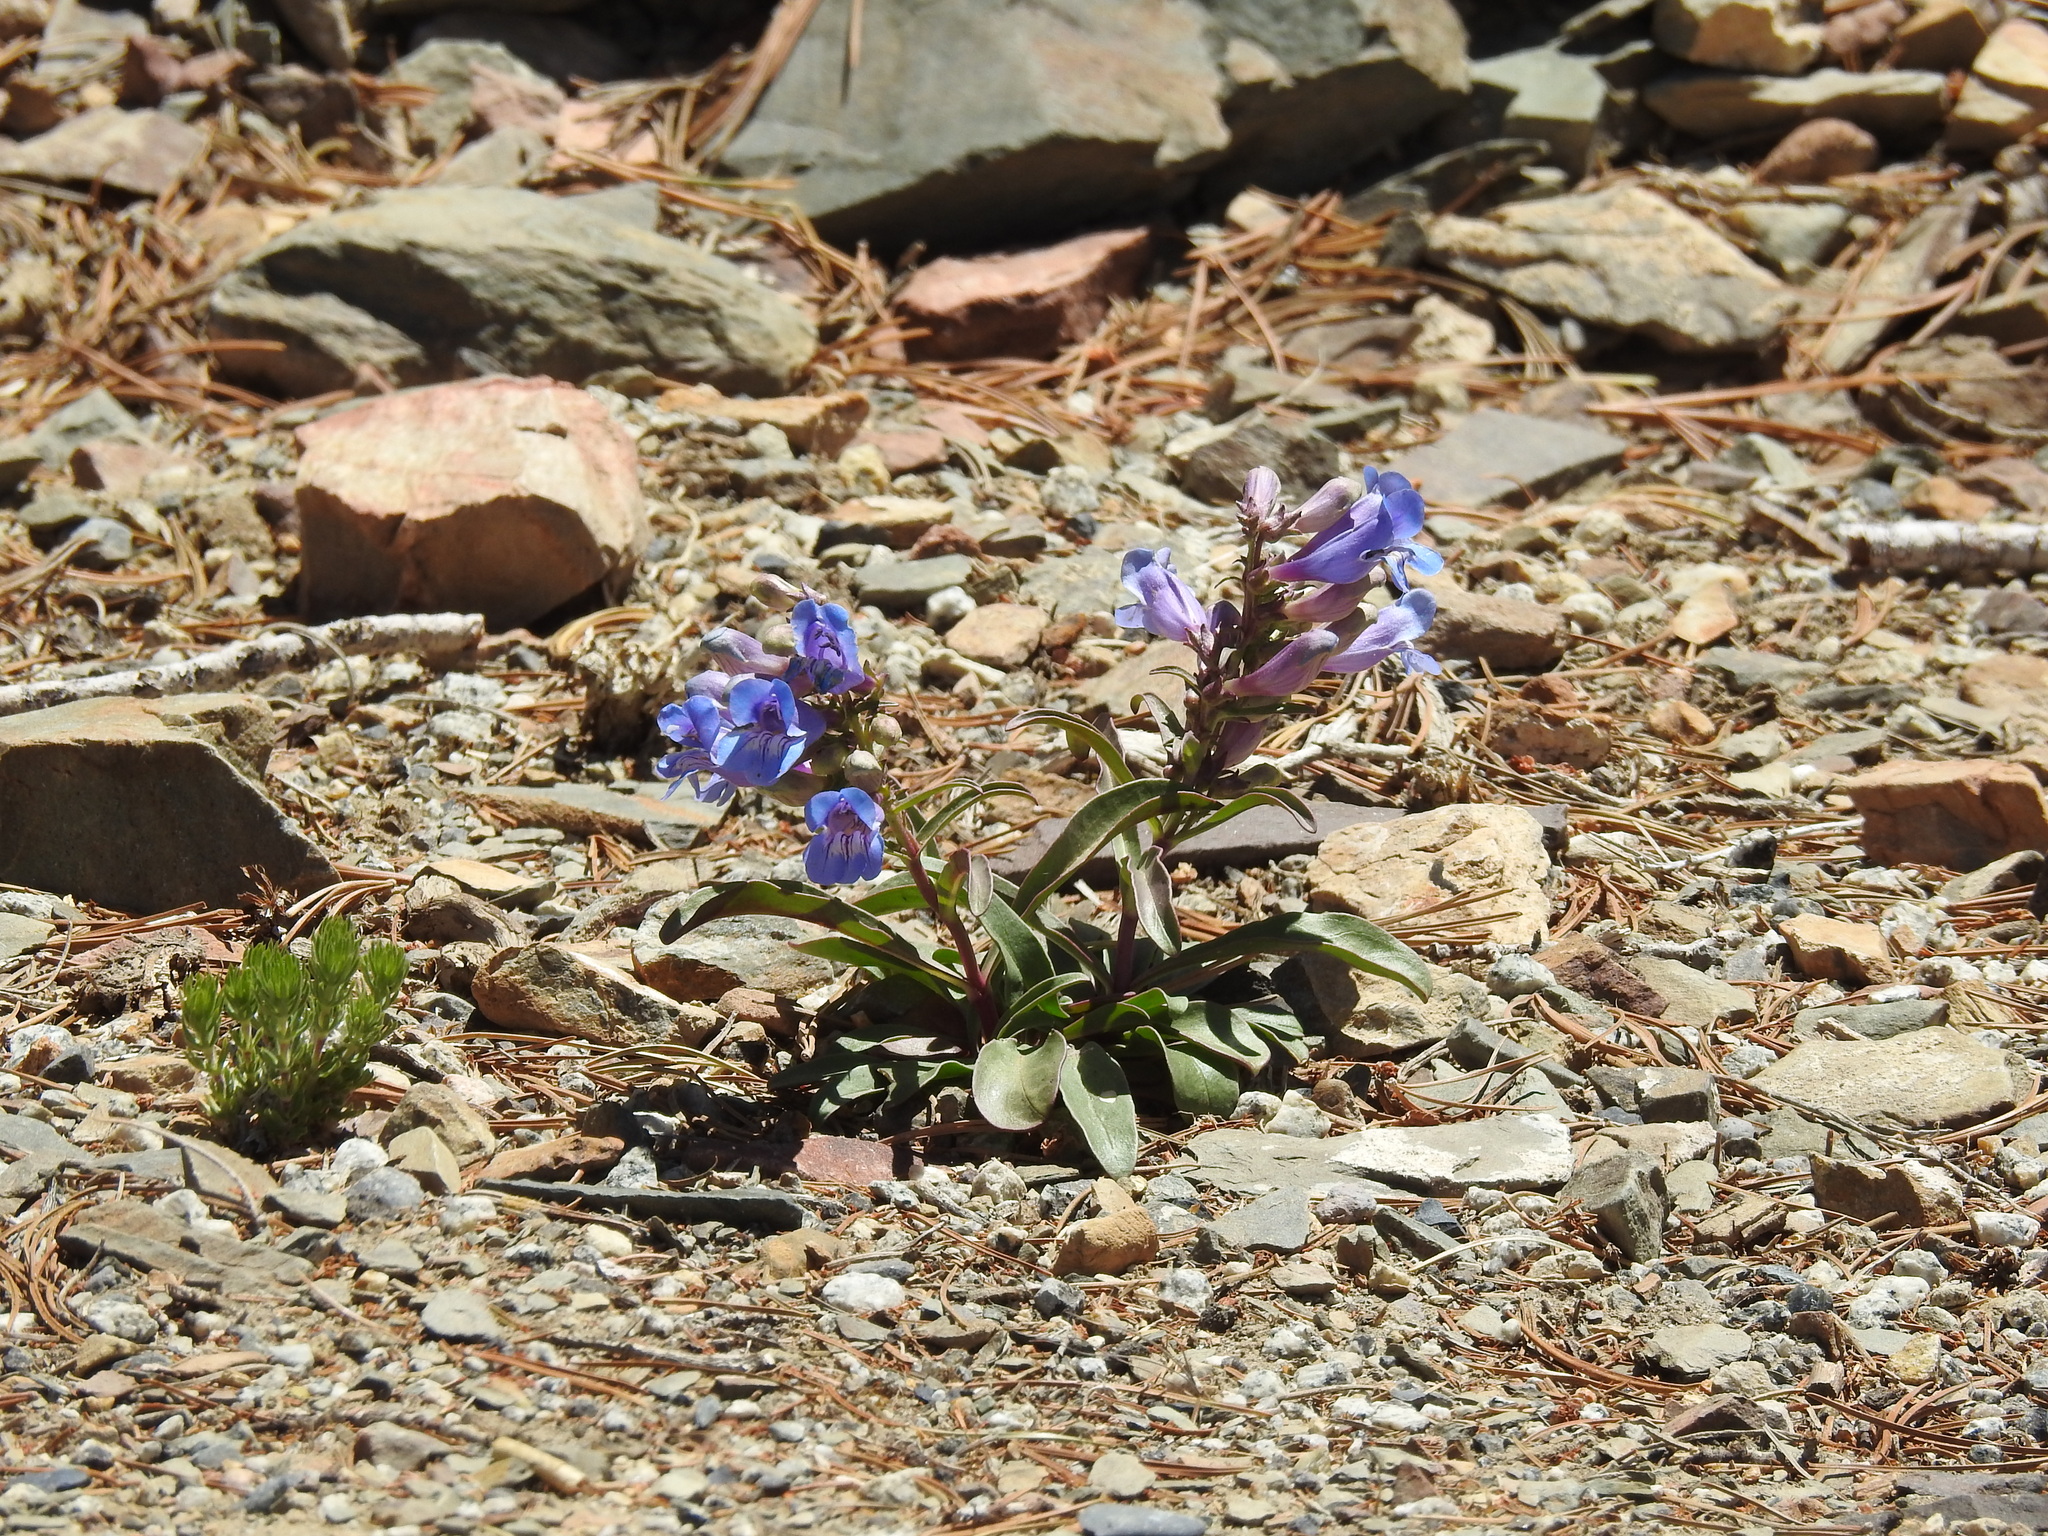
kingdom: Plantae
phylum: Tracheophyta
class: Magnoliopsida
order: Lamiales
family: Plantaginaceae
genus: Penstemon
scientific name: Penstemon speciosus
